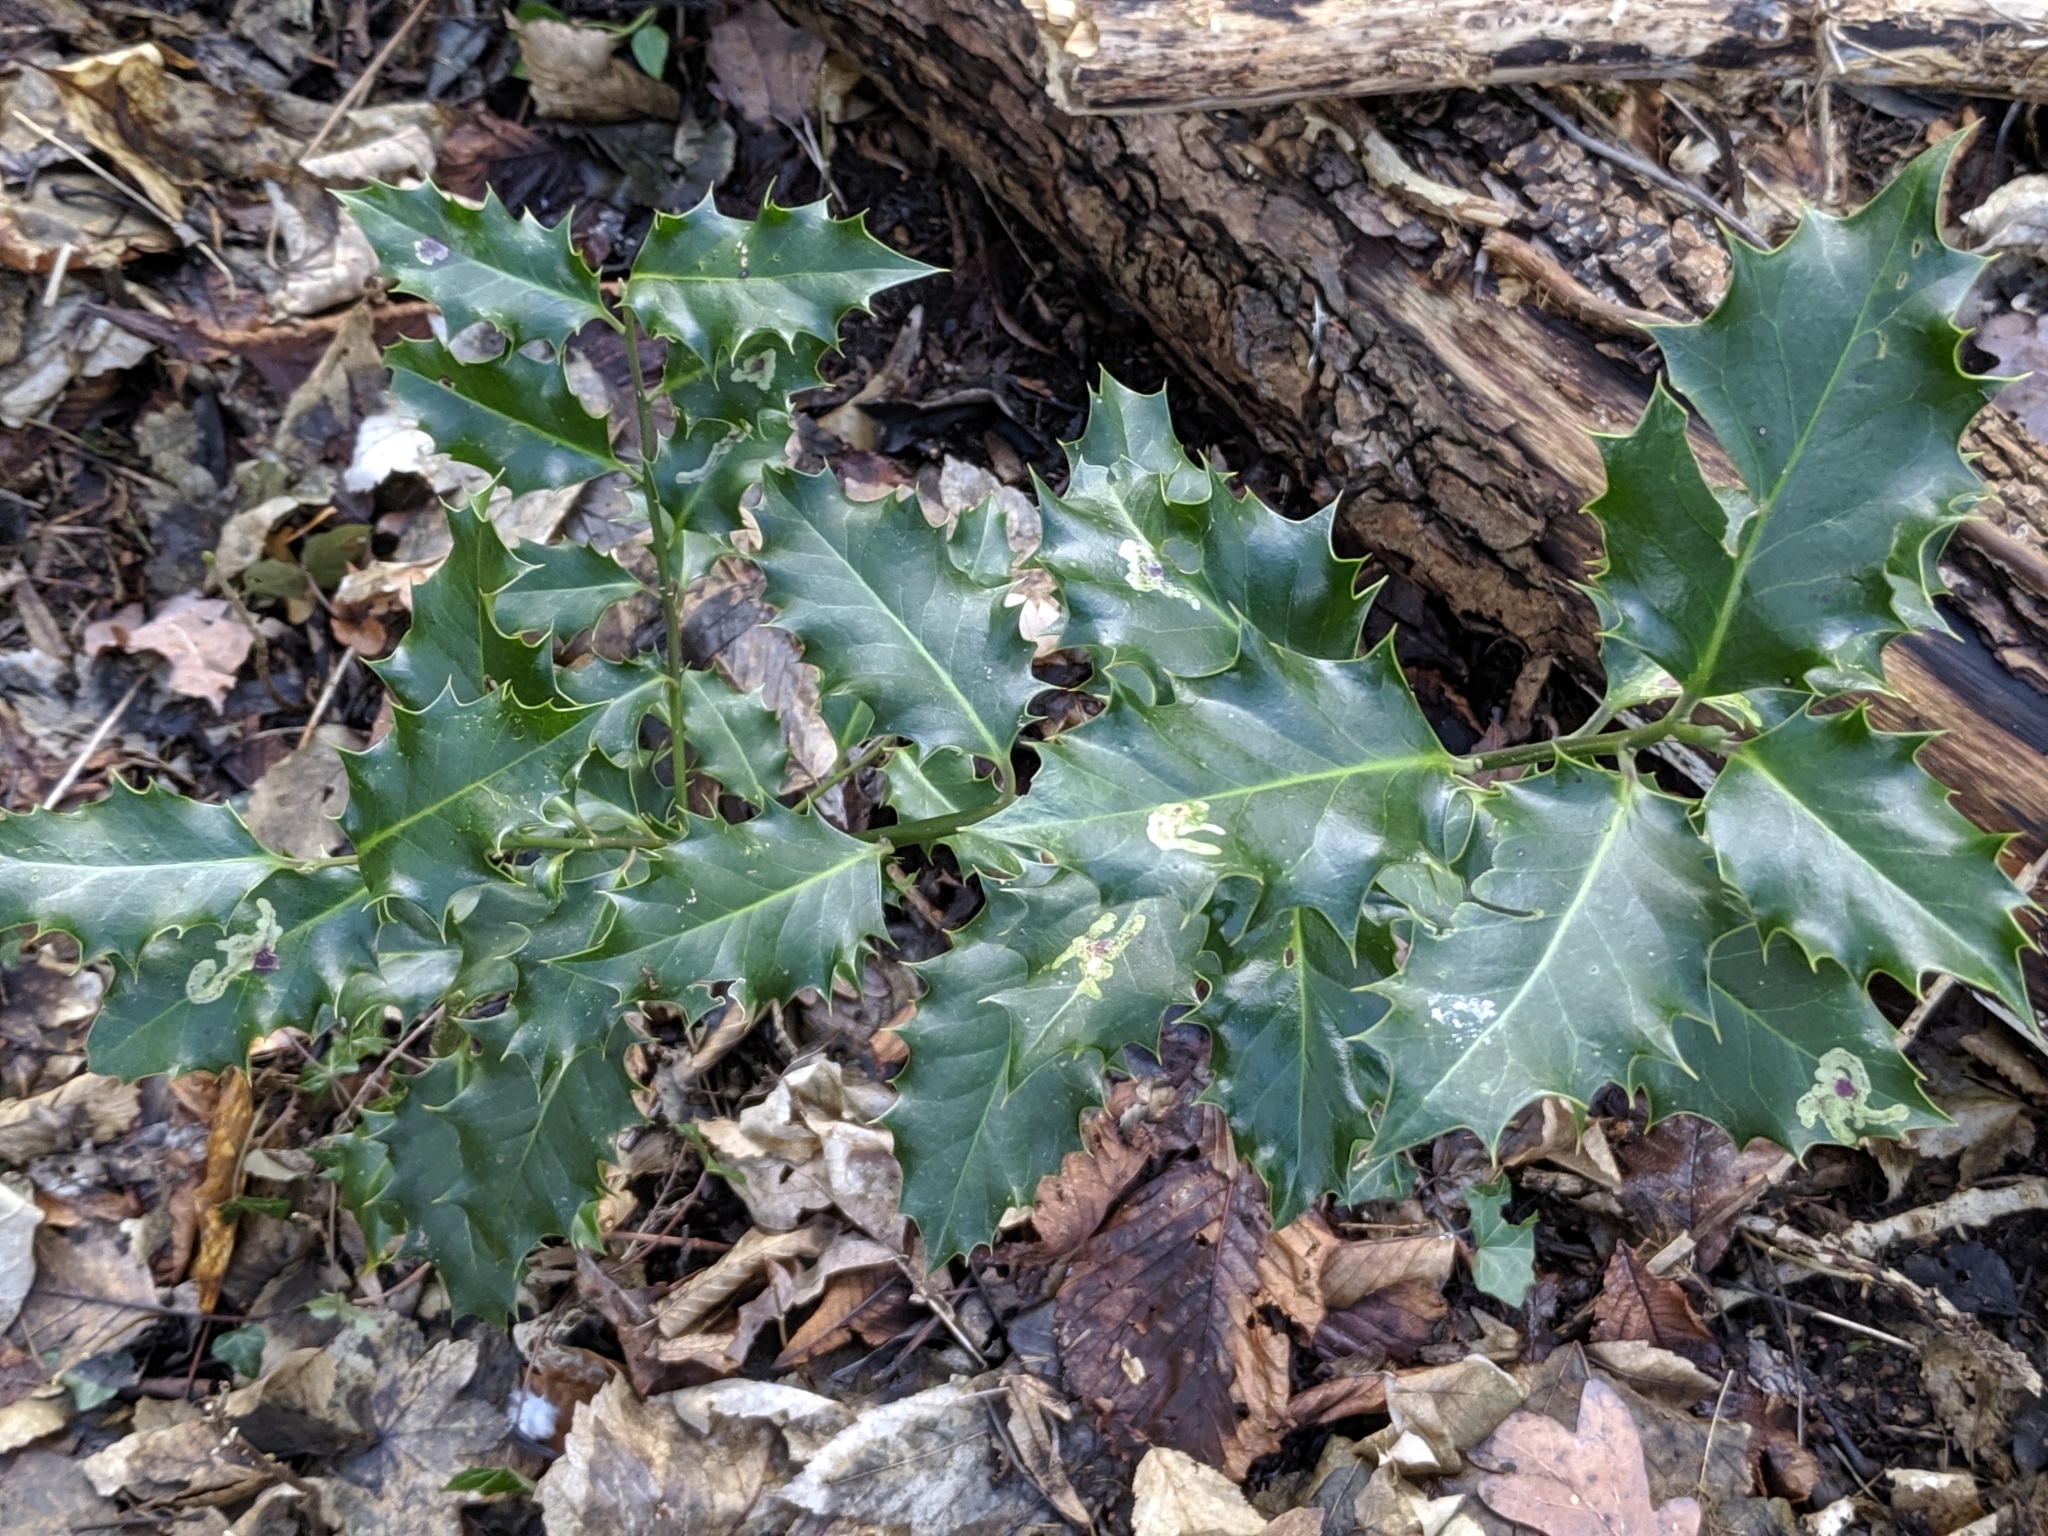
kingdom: Plantae
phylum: Tracheophyta
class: Magnoliopsida
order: Aquifoliales
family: Aquifoliaceae
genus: Ilex
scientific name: Ilex aquifolium
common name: English holly
